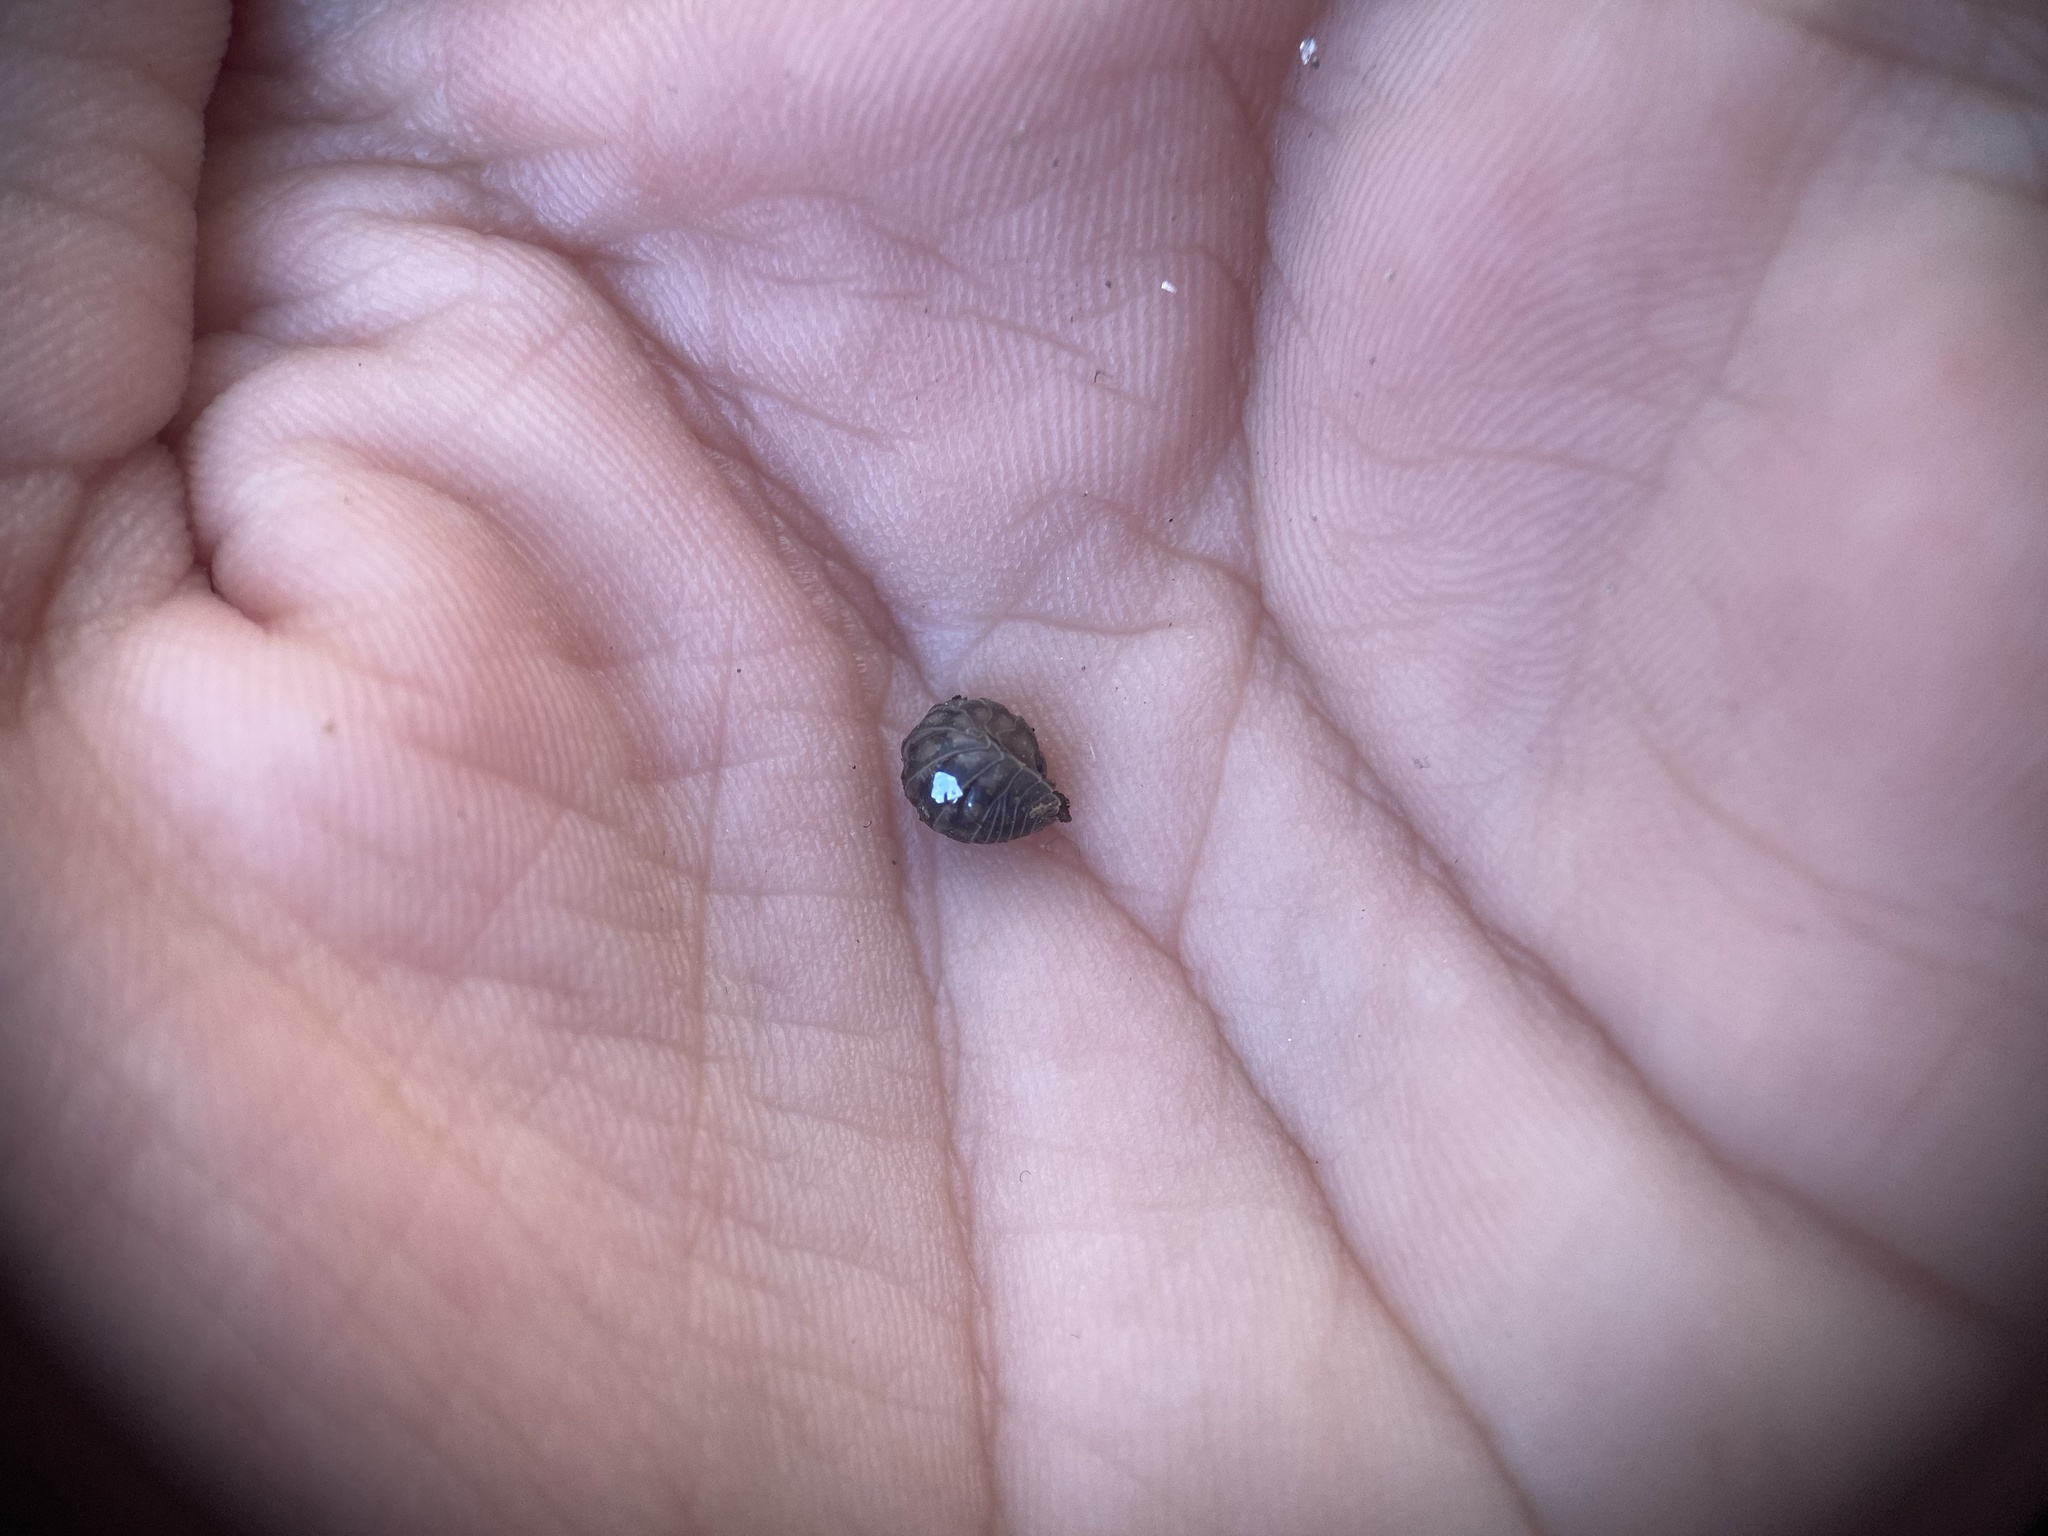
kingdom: Animalia
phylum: Arthropoda
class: Malacostraca
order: Isopoda
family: Armadillidiidae
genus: Armadillidium
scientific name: Armadillidium nasatum
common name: Isopod
